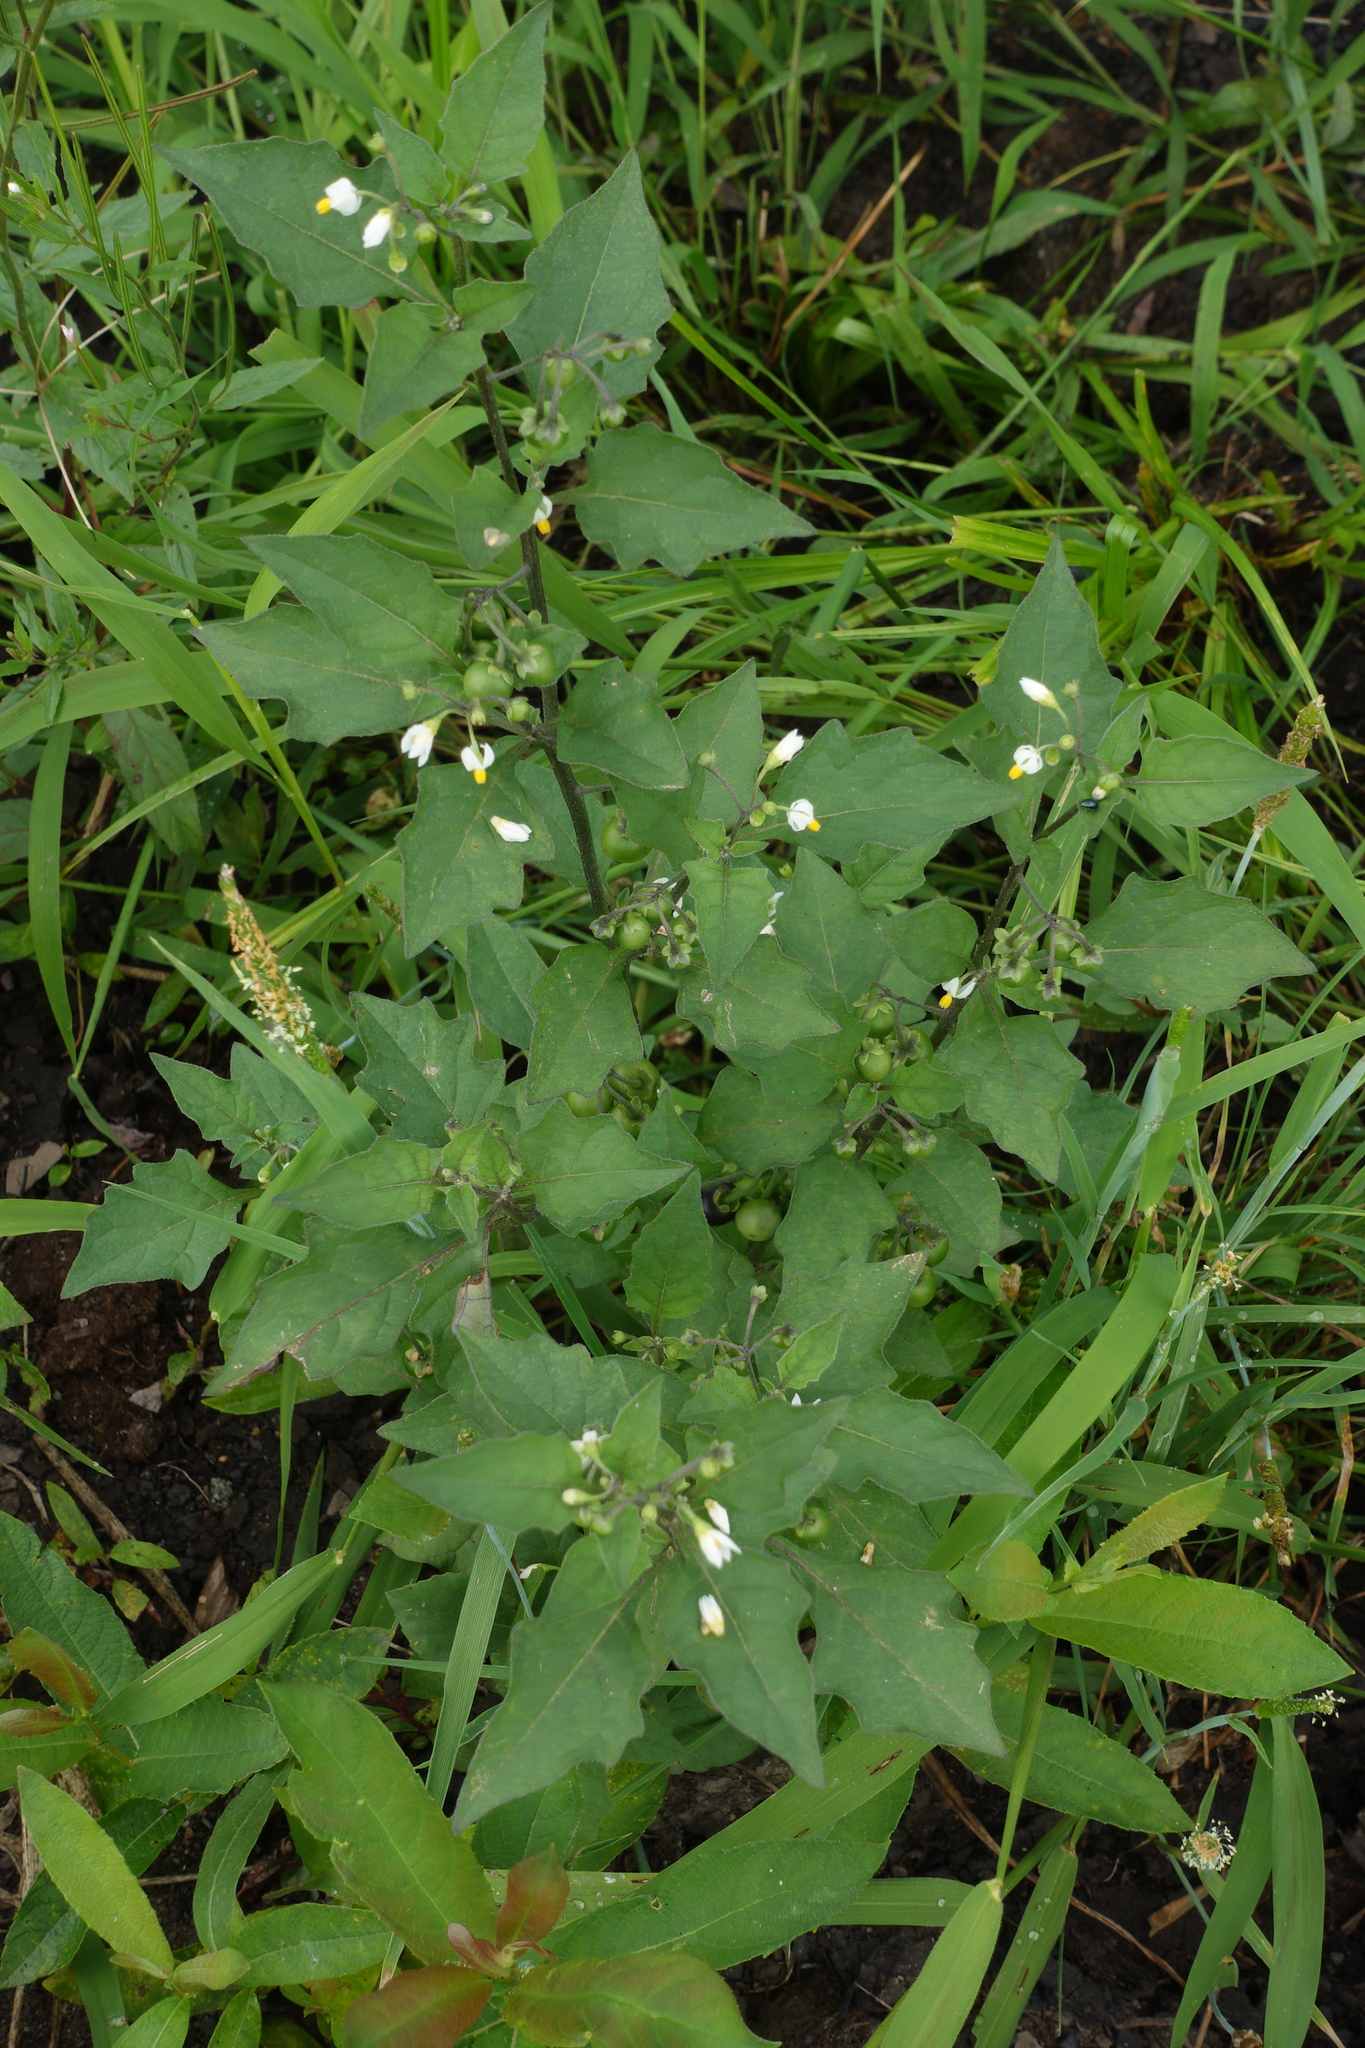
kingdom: Plantae
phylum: Tracheophyta
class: Magnoliopsida
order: Solanales
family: Solanaceae
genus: Solanum
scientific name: Solanum nigrum
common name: Black nightshade
